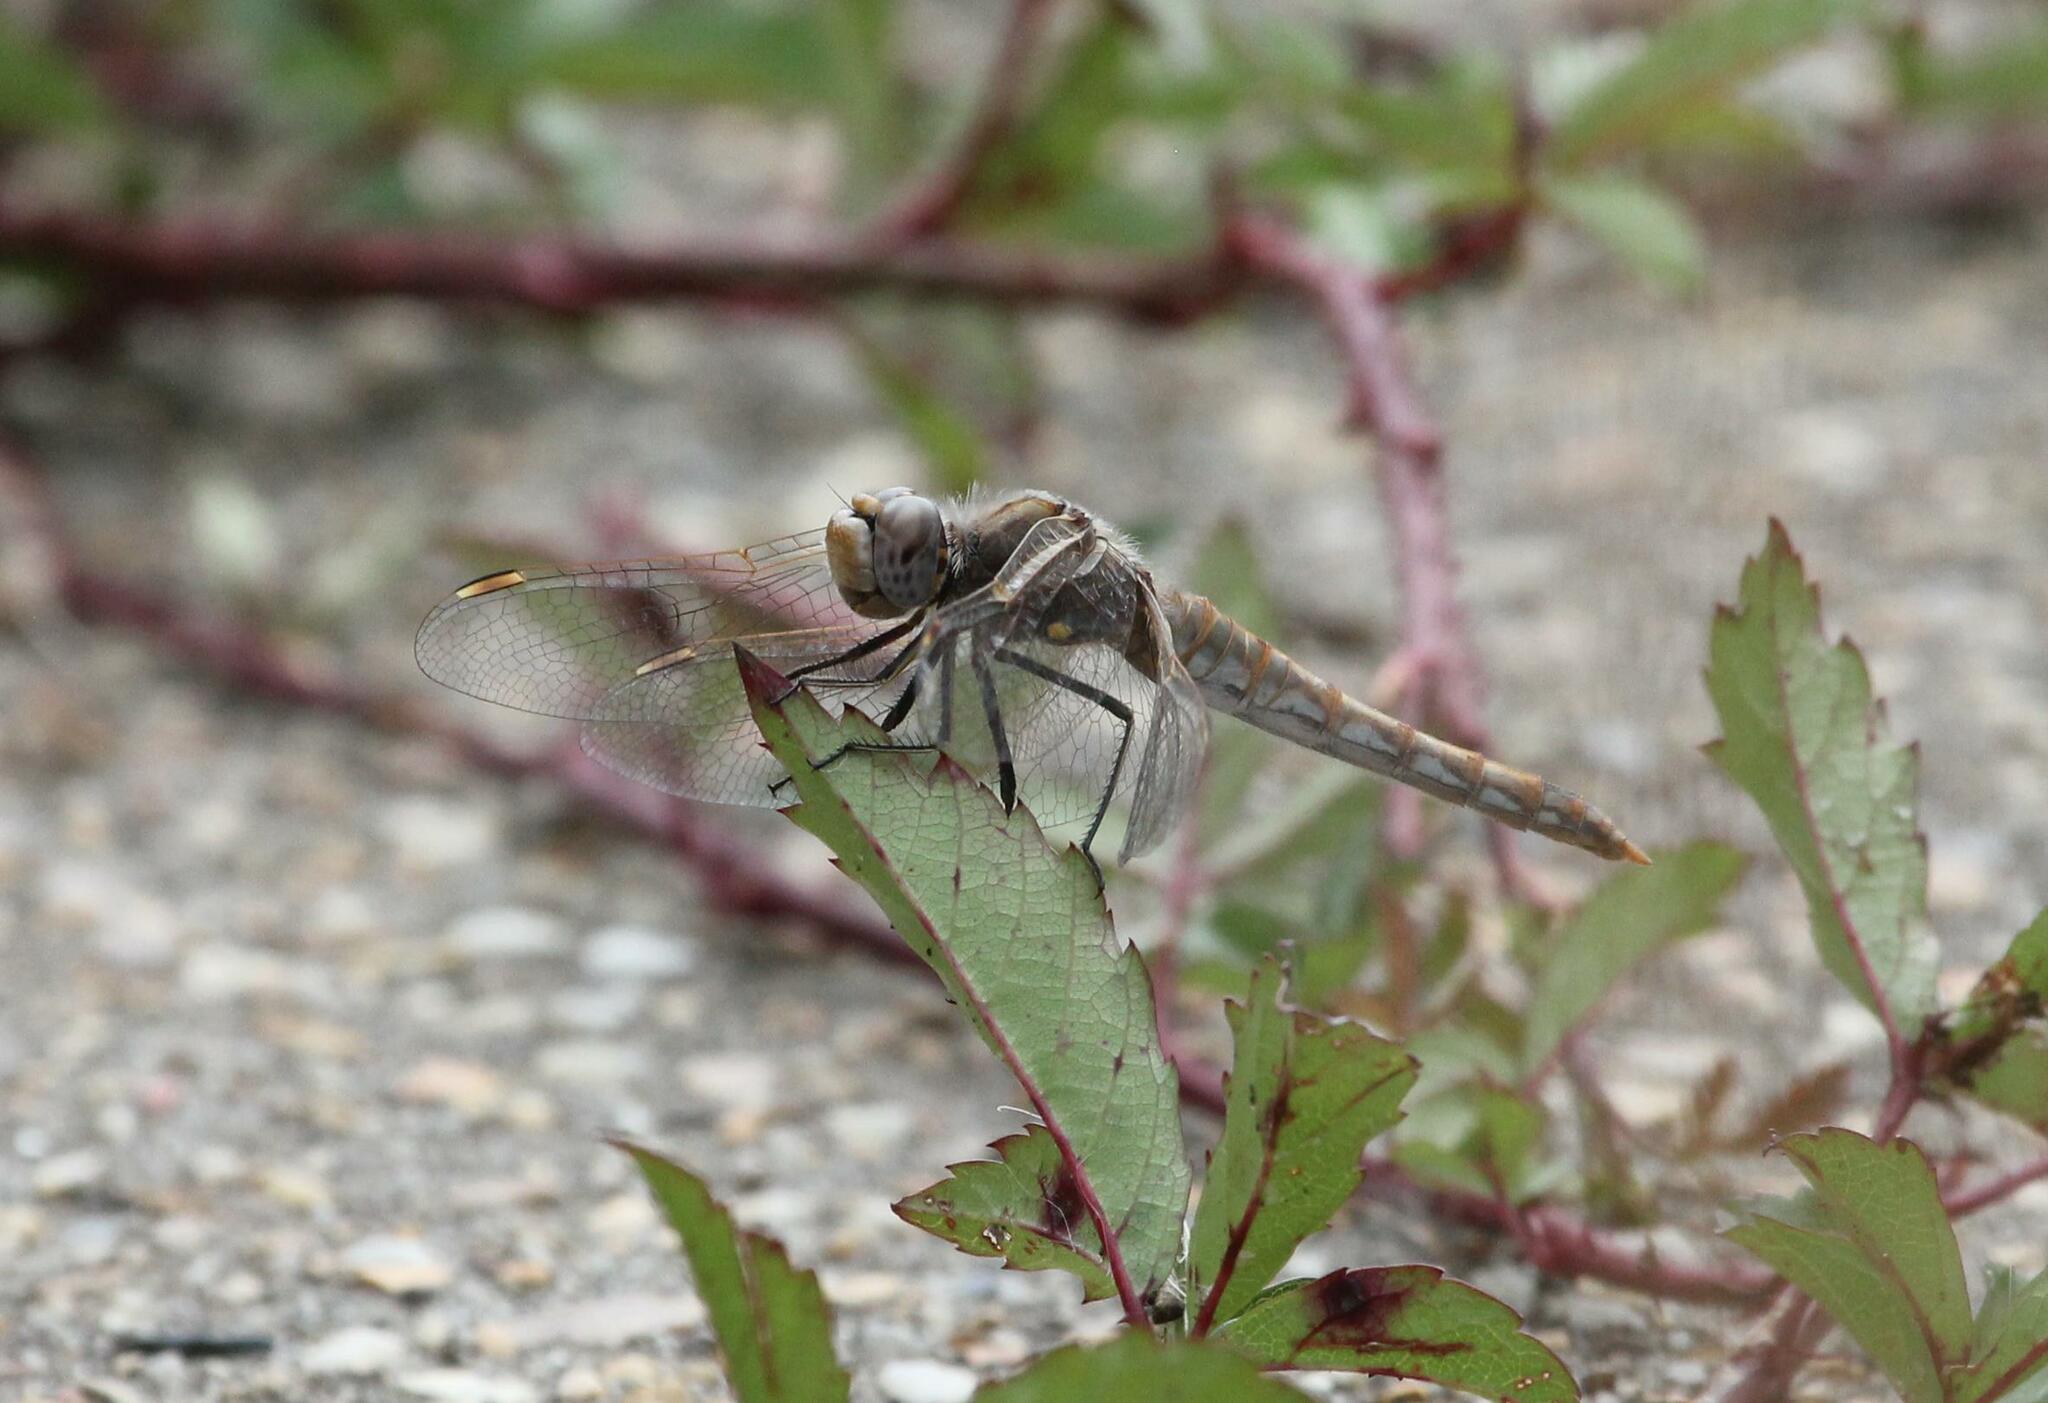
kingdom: Animalia
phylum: Arthropoda
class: Insecta
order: Odonata
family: Libellulidae
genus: Sympetrum
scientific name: Sympetrum corruptum
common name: Variegated meadowhawk
